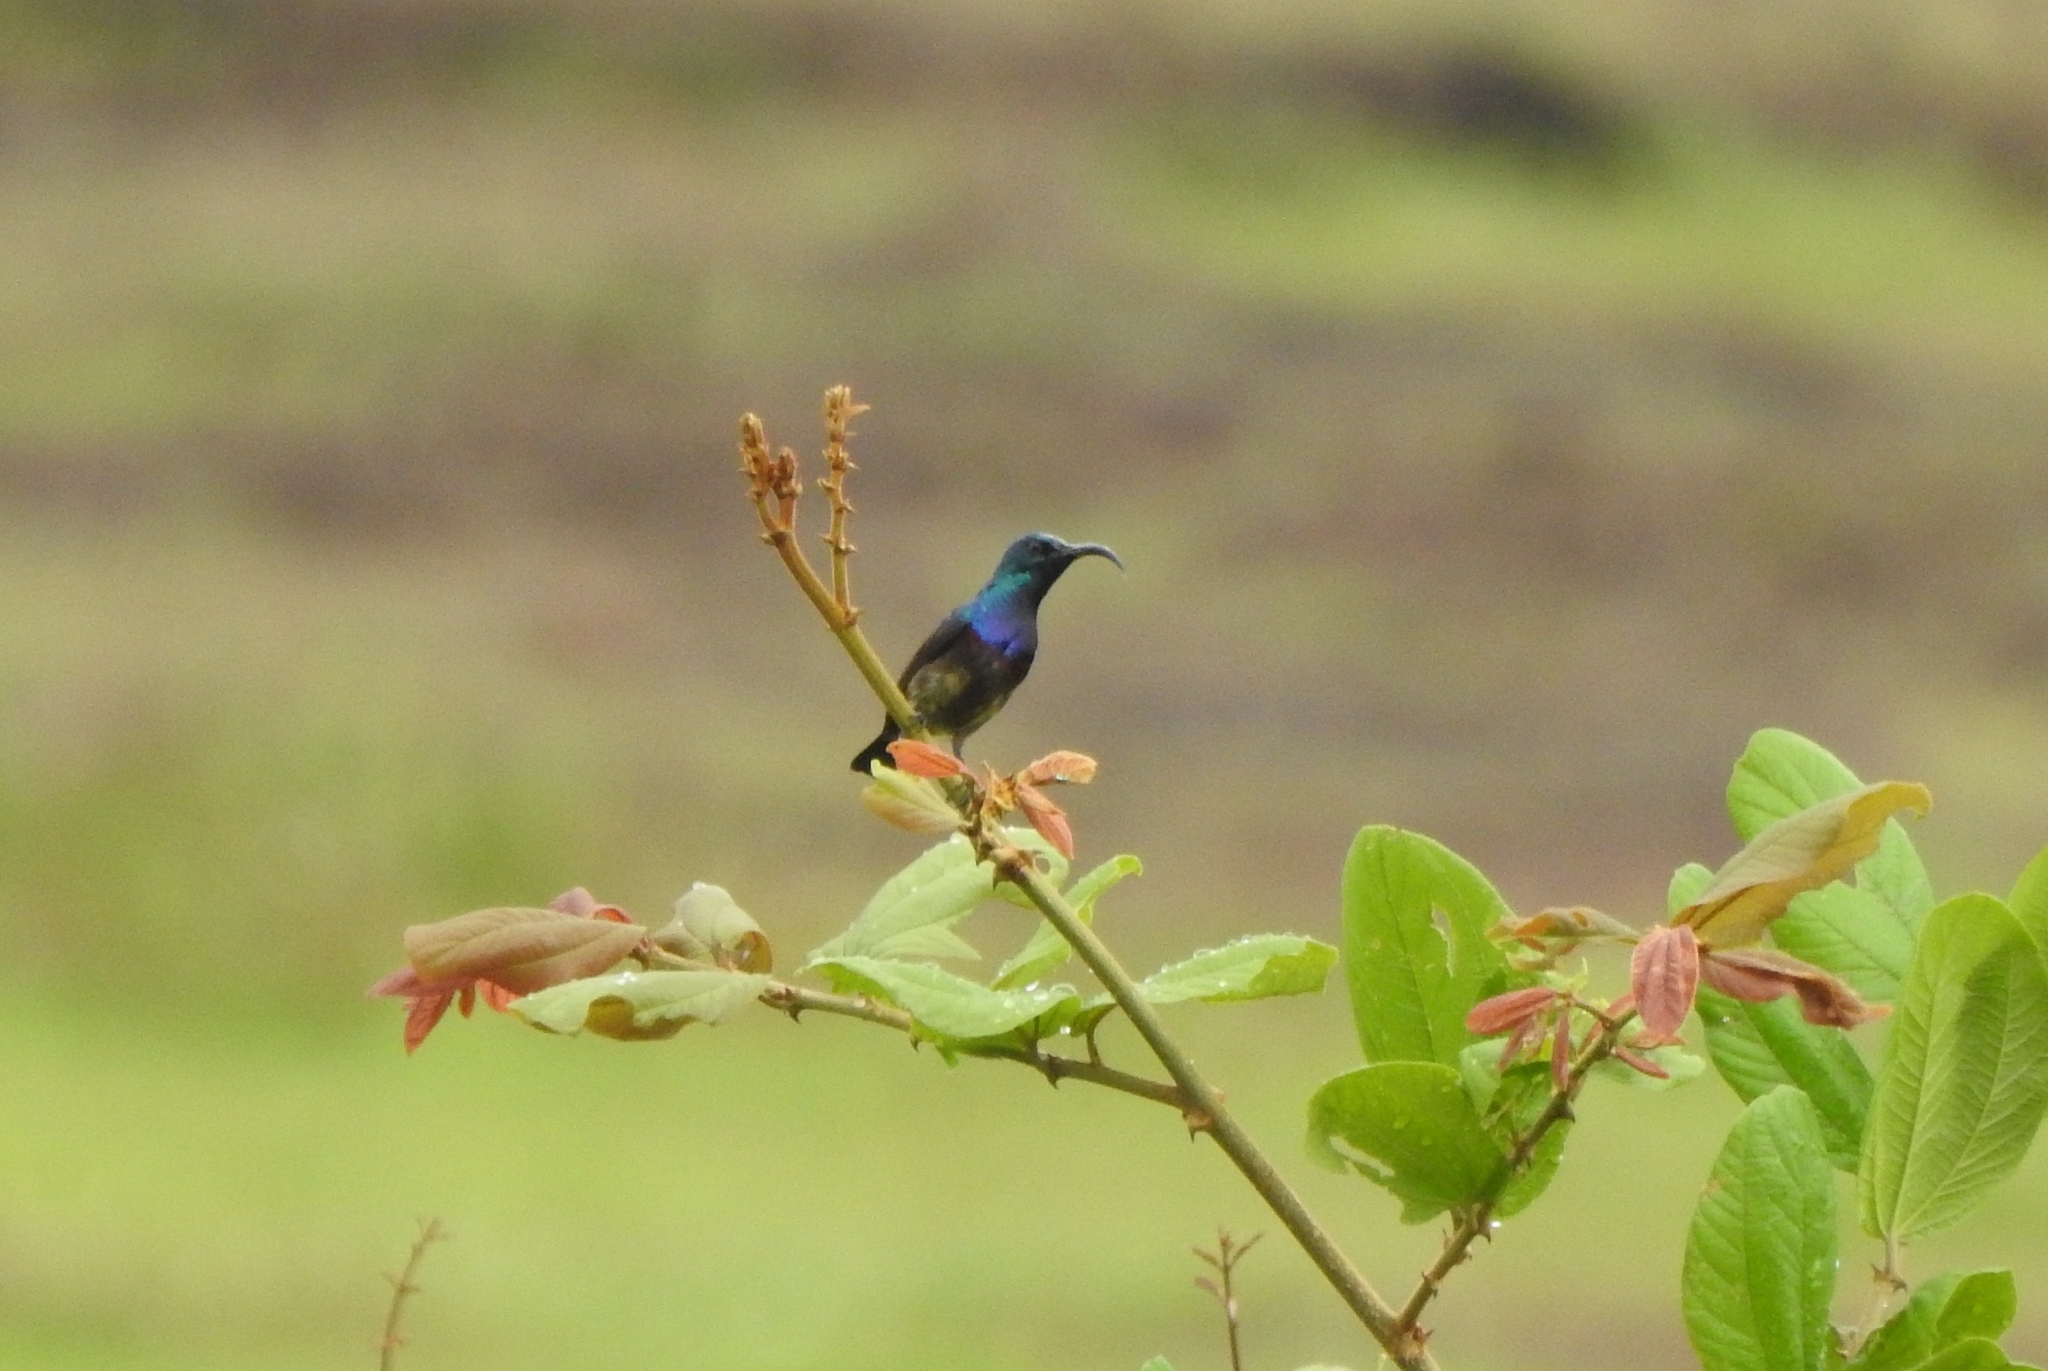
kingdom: Animalia
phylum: Chordata
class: Aves
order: Passeriformes
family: Nectariniidae
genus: Cinnyris
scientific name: Cinnyris lotenius
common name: Loten's sunbird
